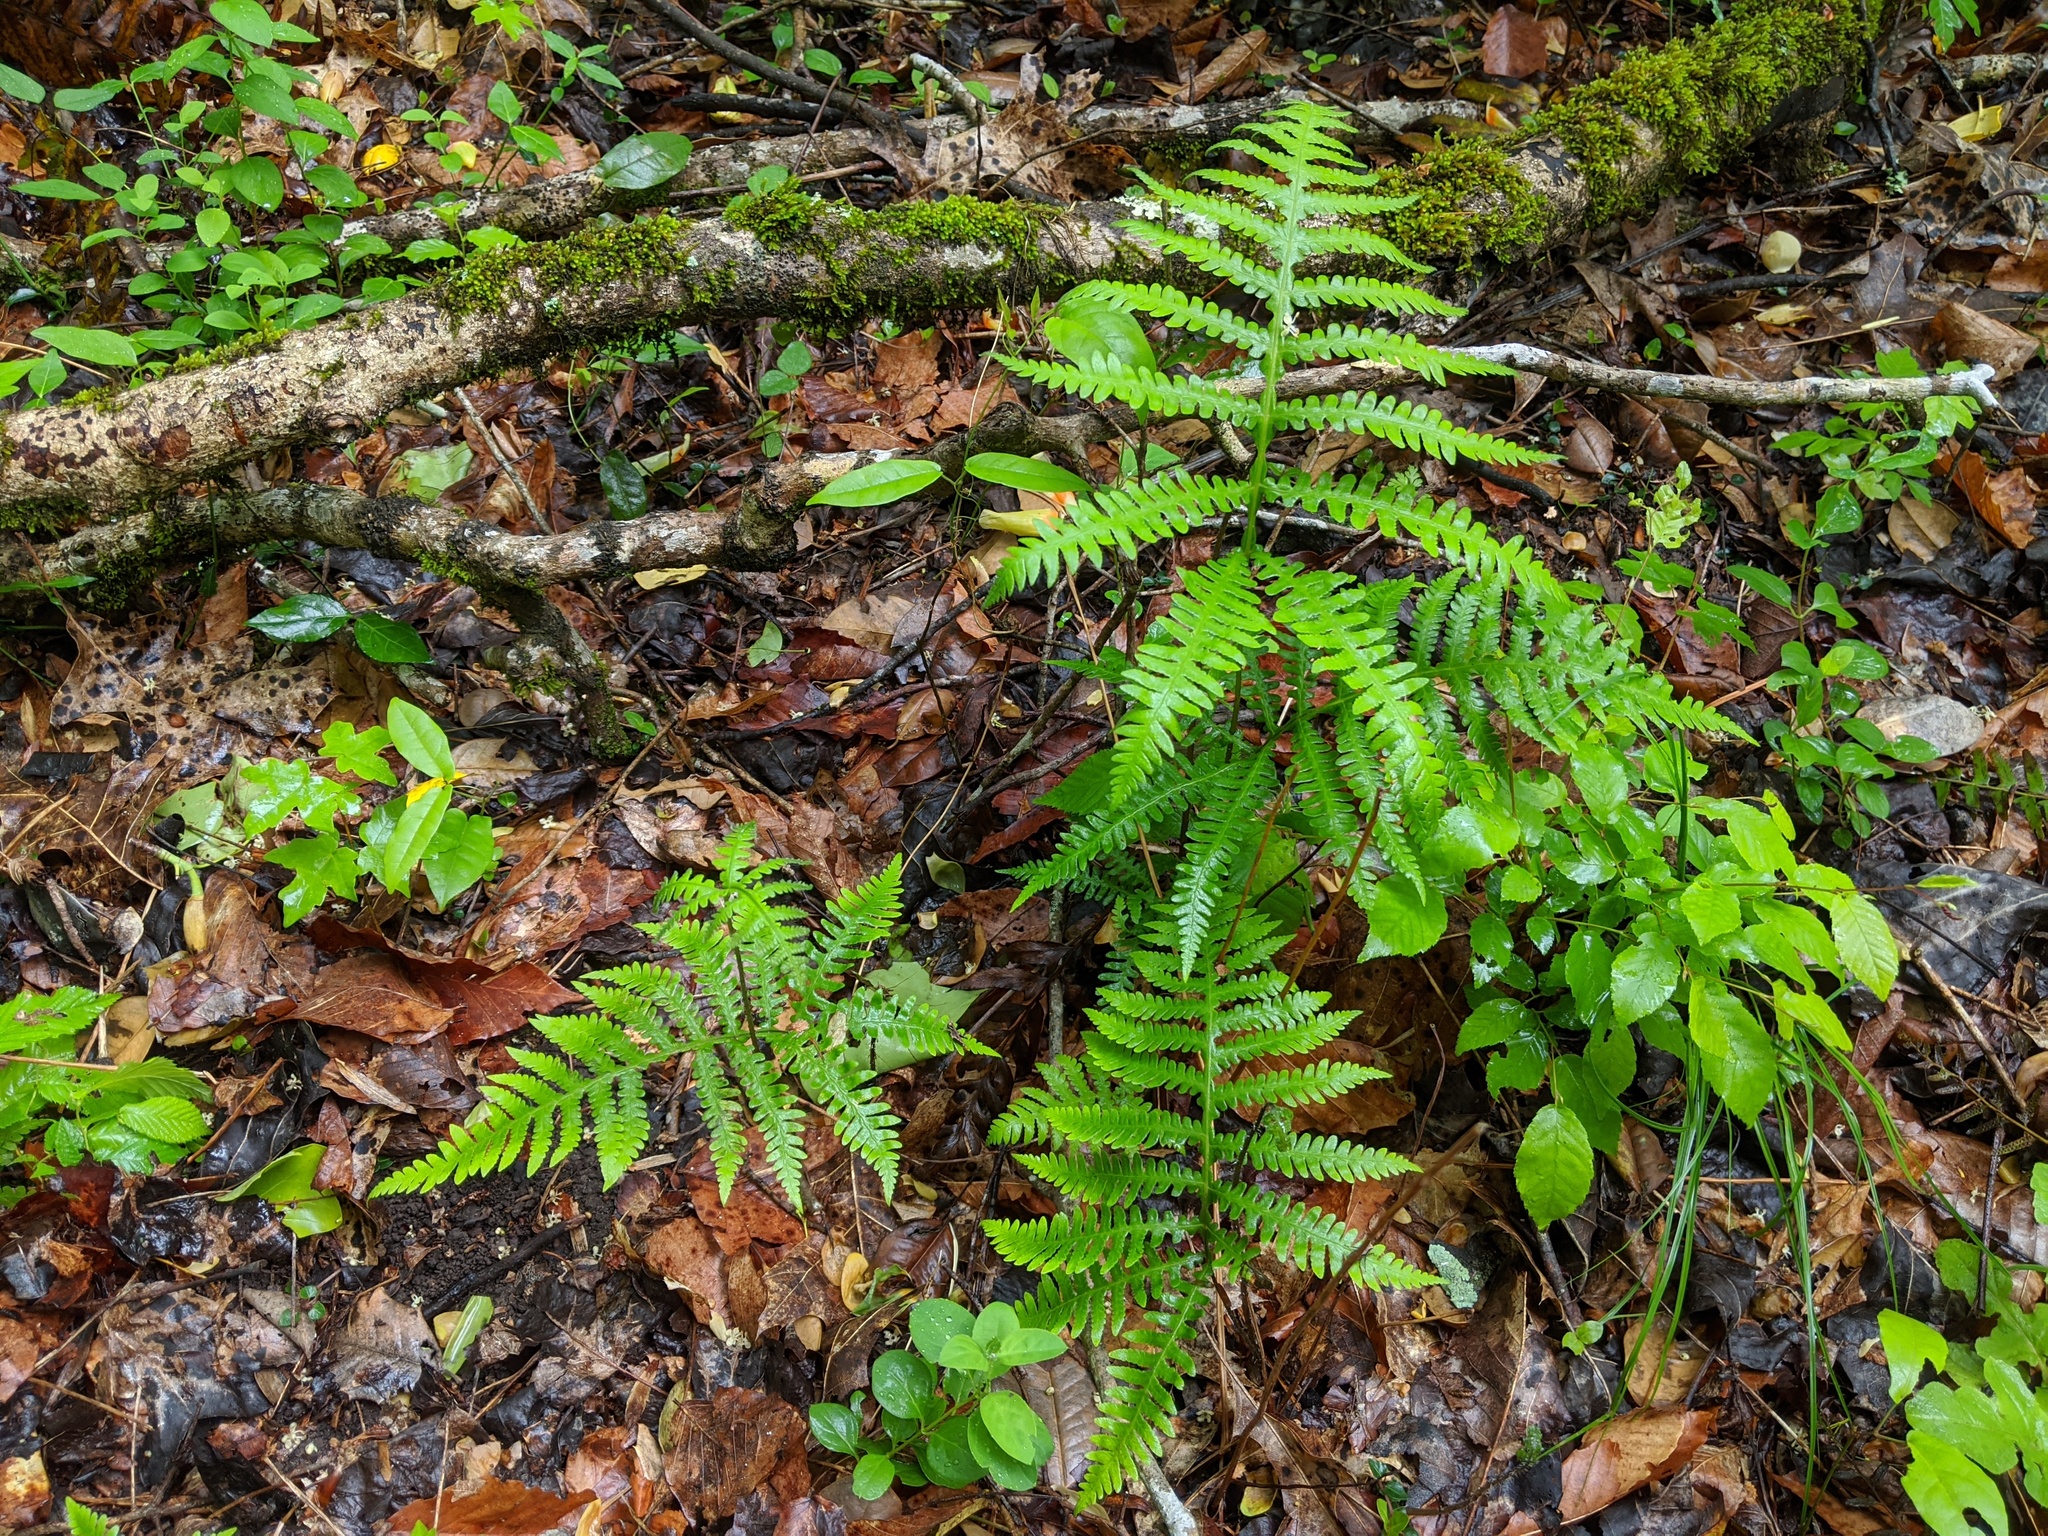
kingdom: Plantae
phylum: Tracheophyta
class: Polypodiopsida
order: Polypodiales
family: Thelypteridaceae
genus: Phegopteris
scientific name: Phegopteris hexagonoptera
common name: Broad beech fern
